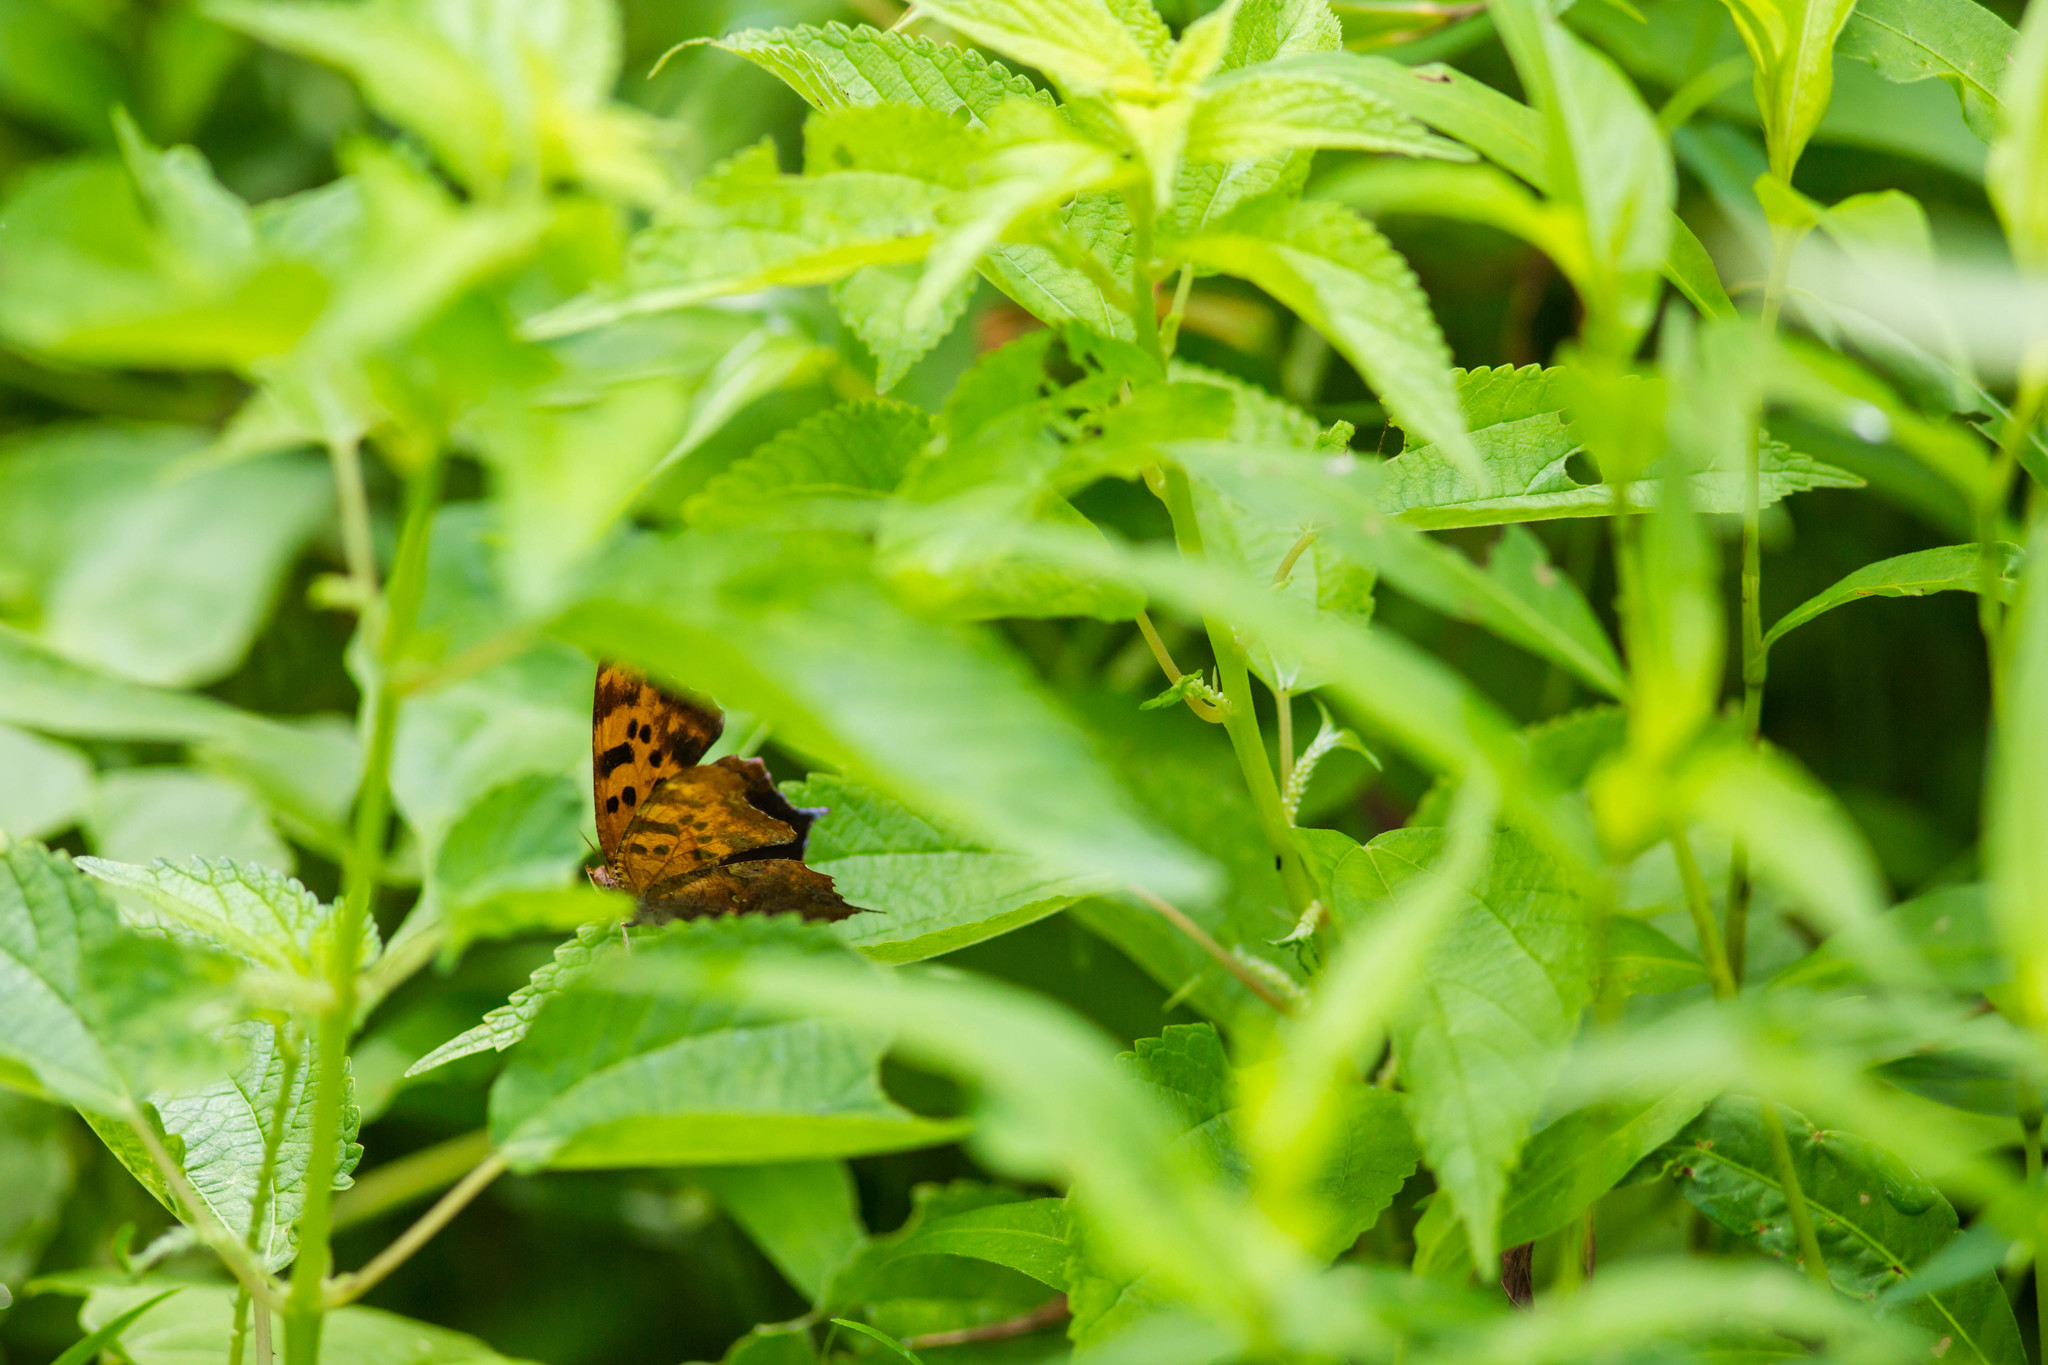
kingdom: Animalia
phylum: Arthropoda
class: Insecta
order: Lepidoptera
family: Nymphalidae
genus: Polygonia
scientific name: Polygonia interrogationis
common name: Question mark
